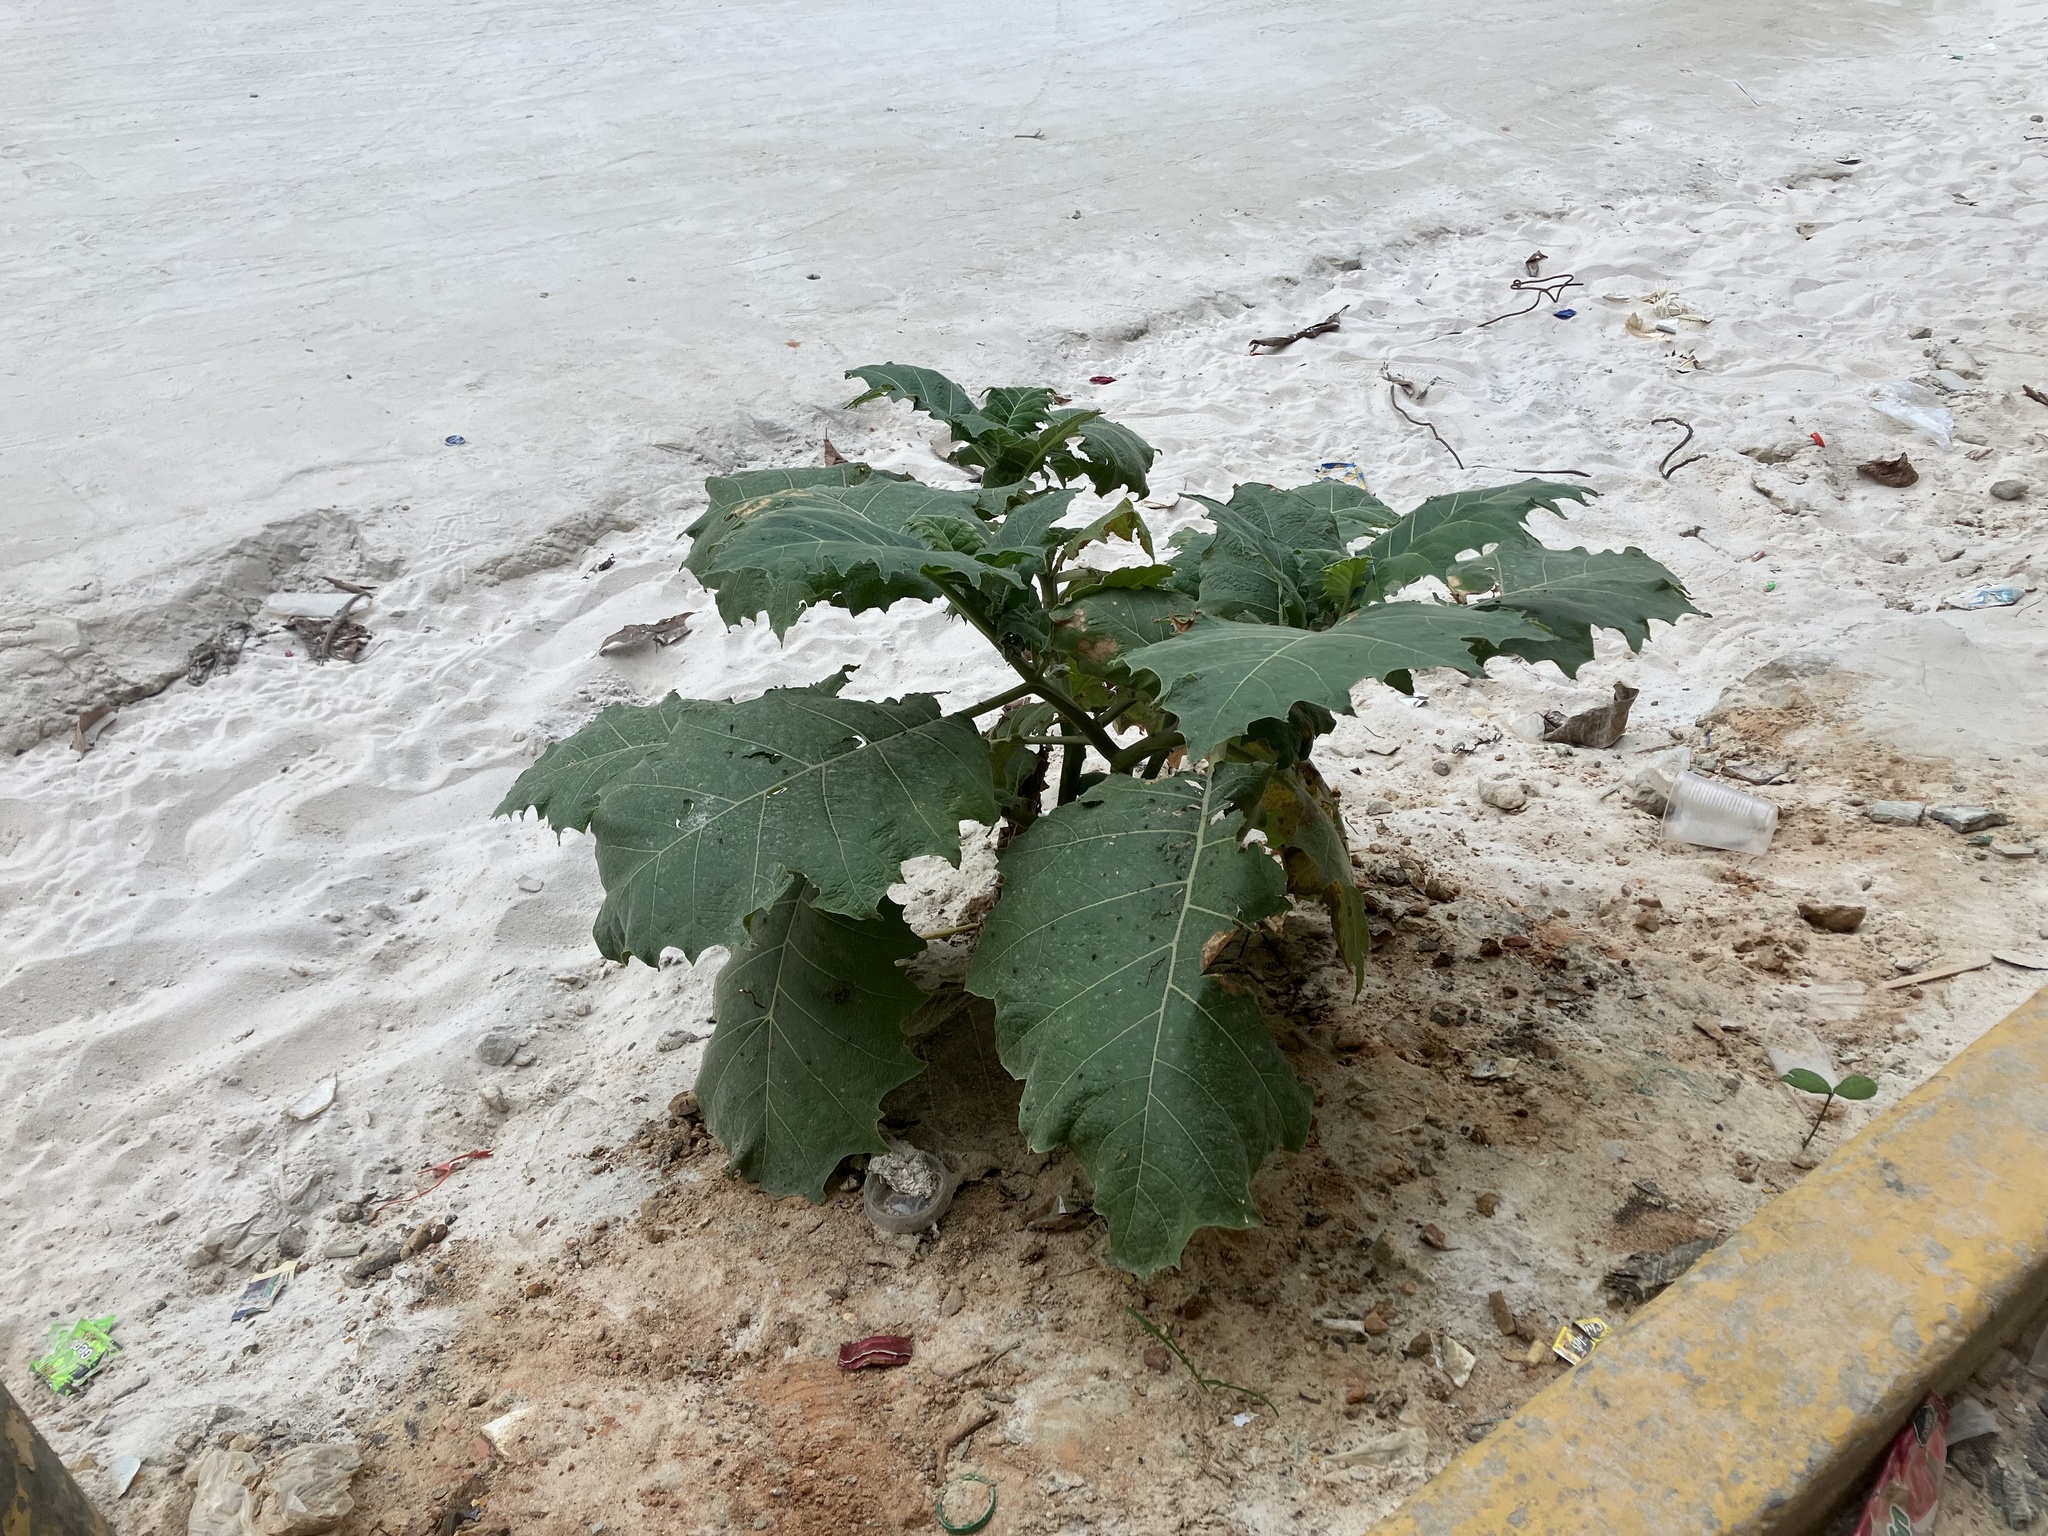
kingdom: Plantae
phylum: Tracheophyta
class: Magnoliopsida
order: Solanales
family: Solanaceae
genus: Solanum
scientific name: Solanum sessiliflorum
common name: Orinoco-apple
